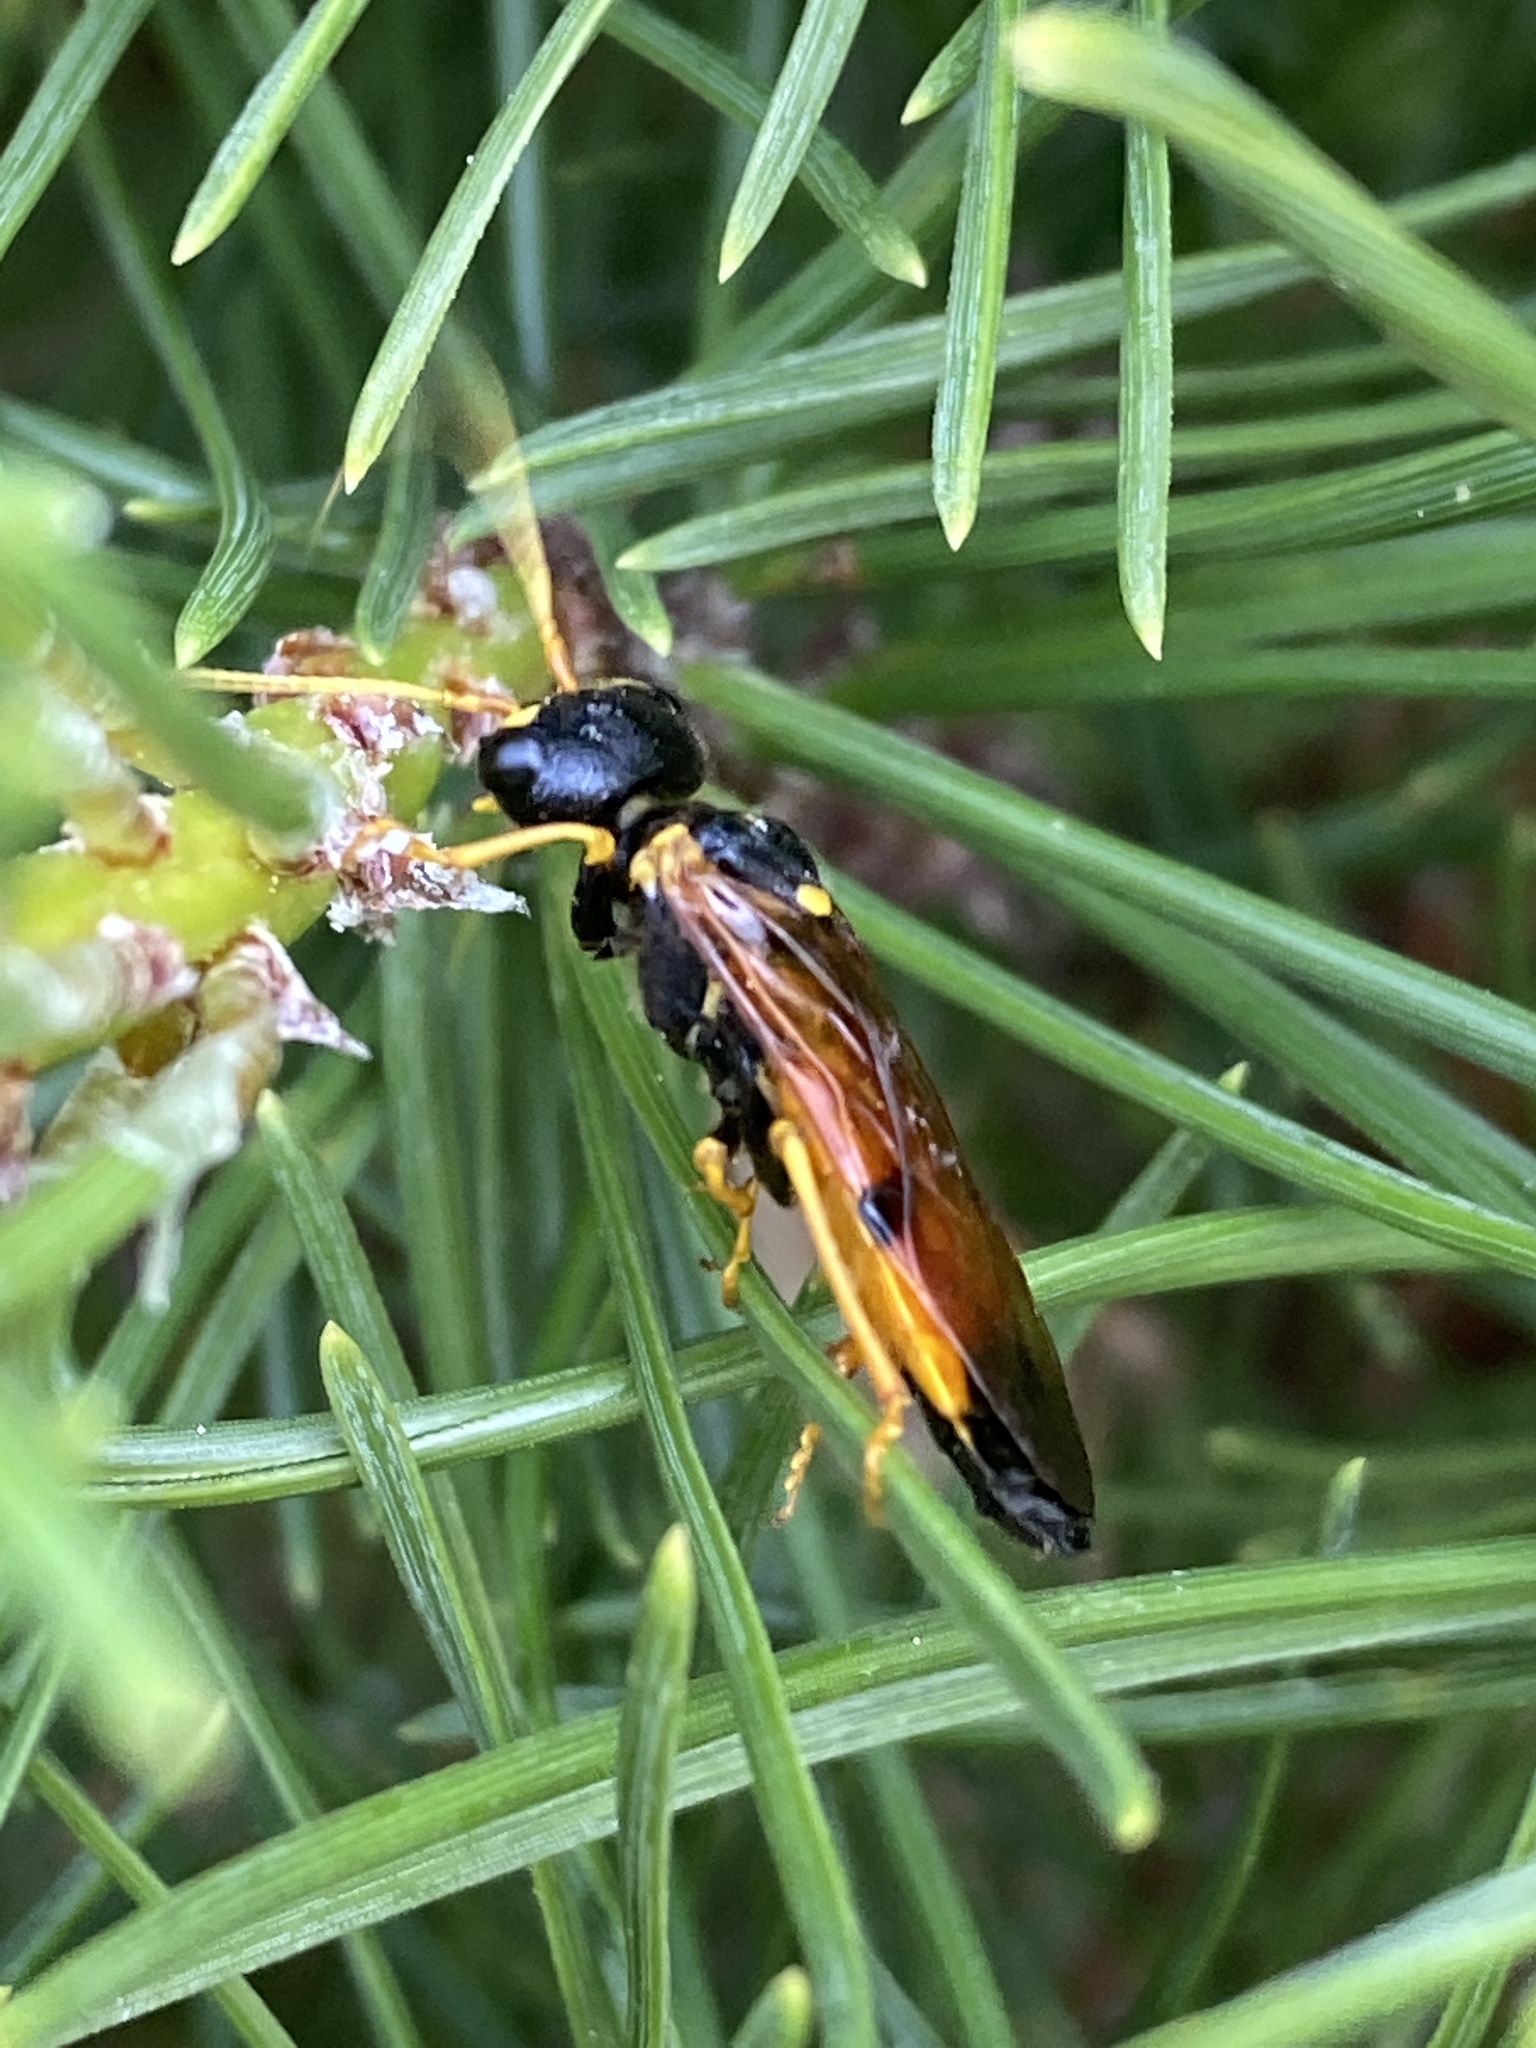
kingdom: Animalia
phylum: Arthropoda
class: Insecta
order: Hymenoptera
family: Pamphiliidae
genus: Acantholyda
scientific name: Acantholyda hieroglyphica
